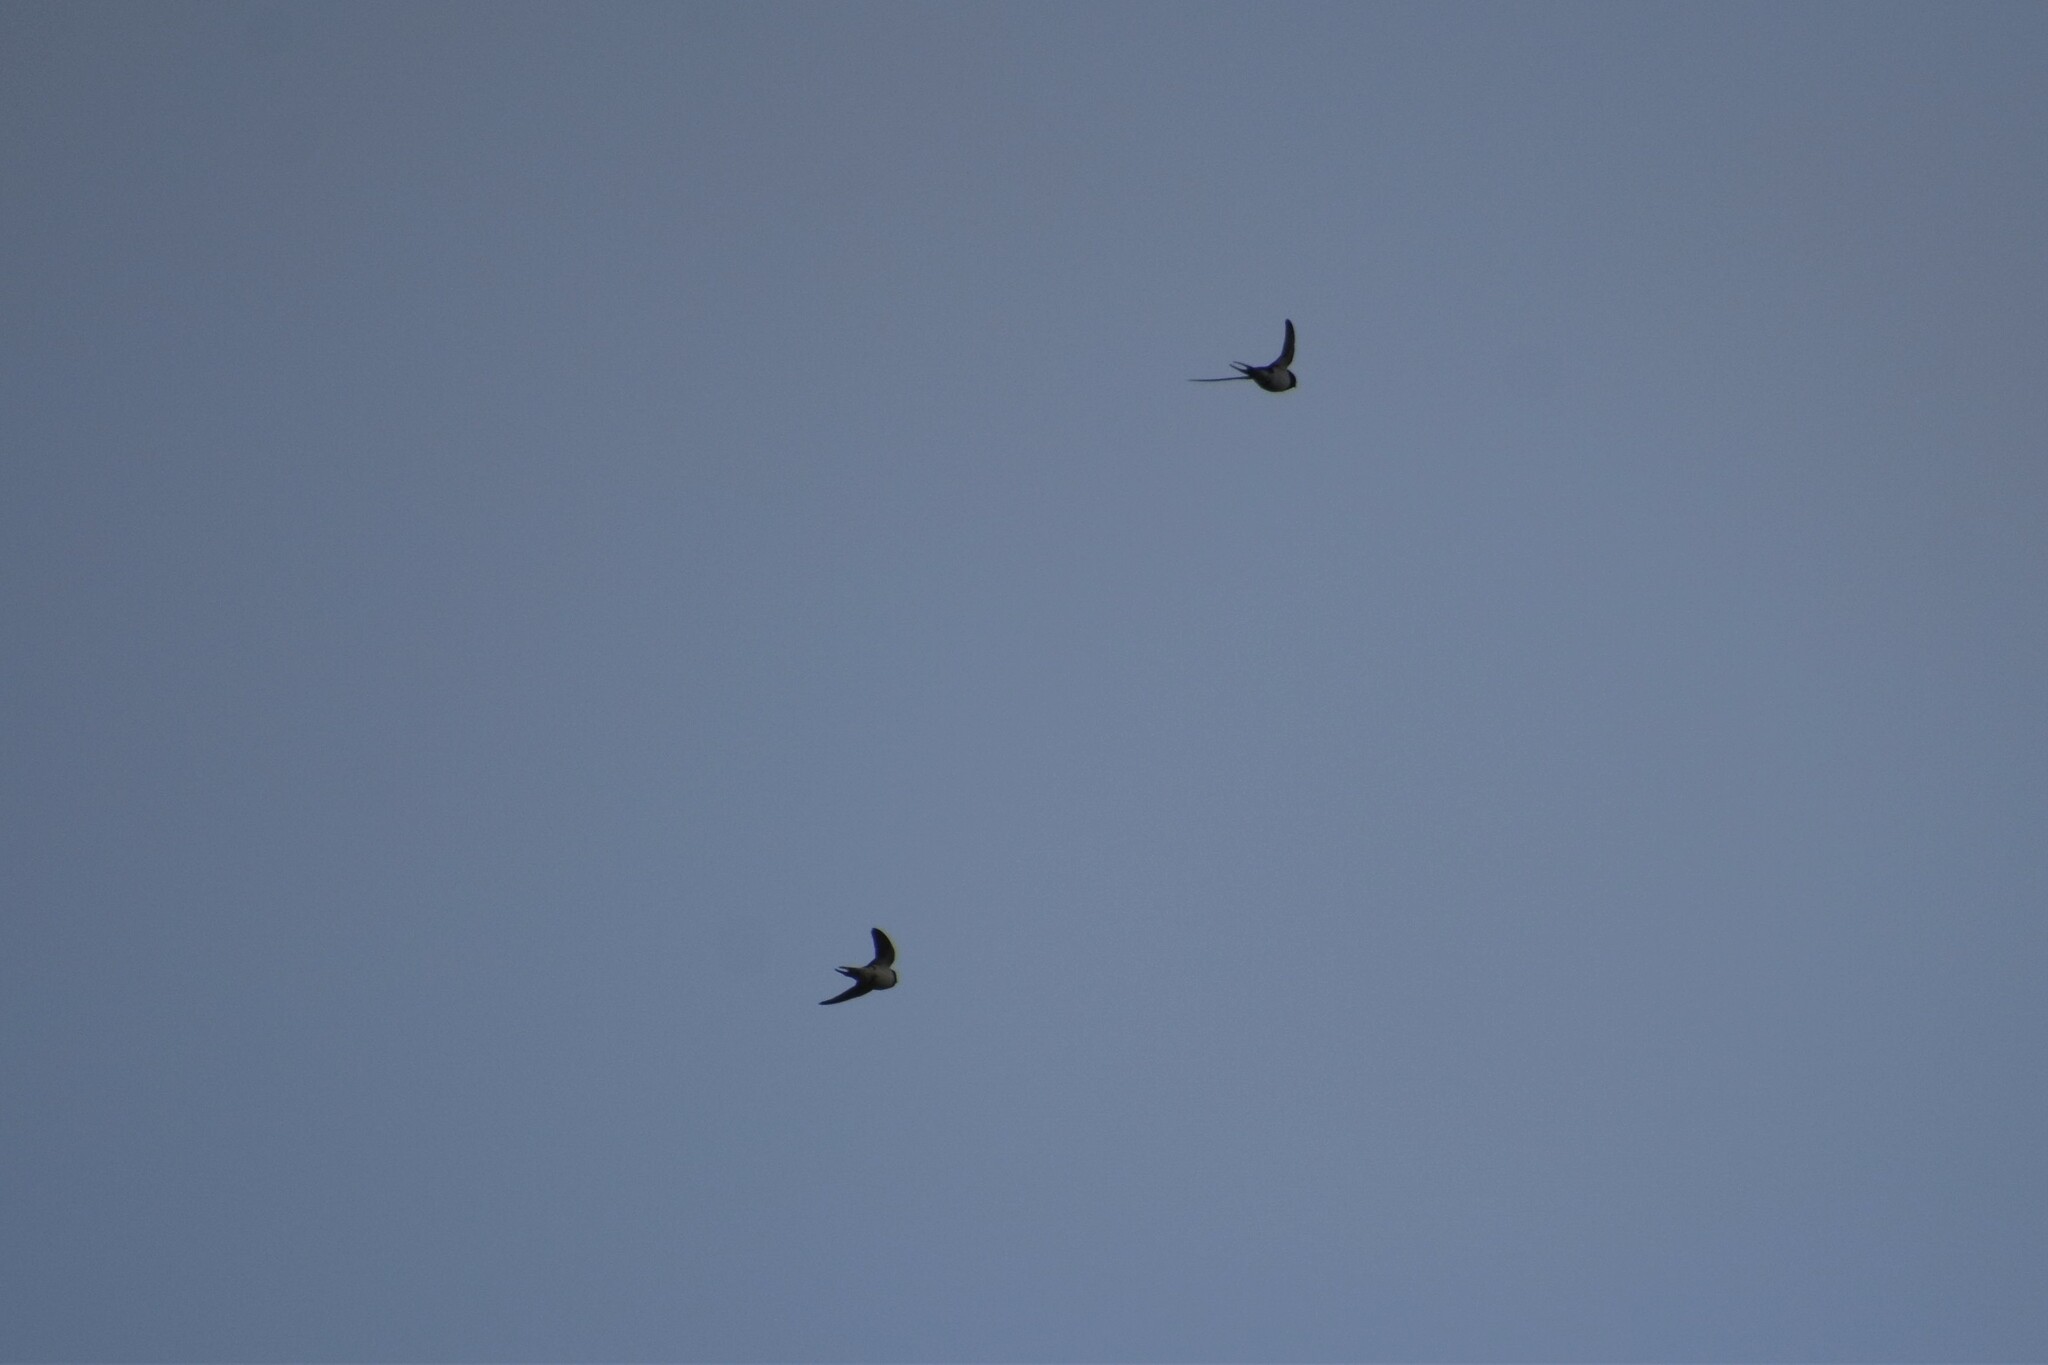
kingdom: Animalia
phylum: Chordata
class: Aves
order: Passeriformes
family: Hirundinidae
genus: Hirundo
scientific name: Hirundo rustica
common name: Barn swallow
